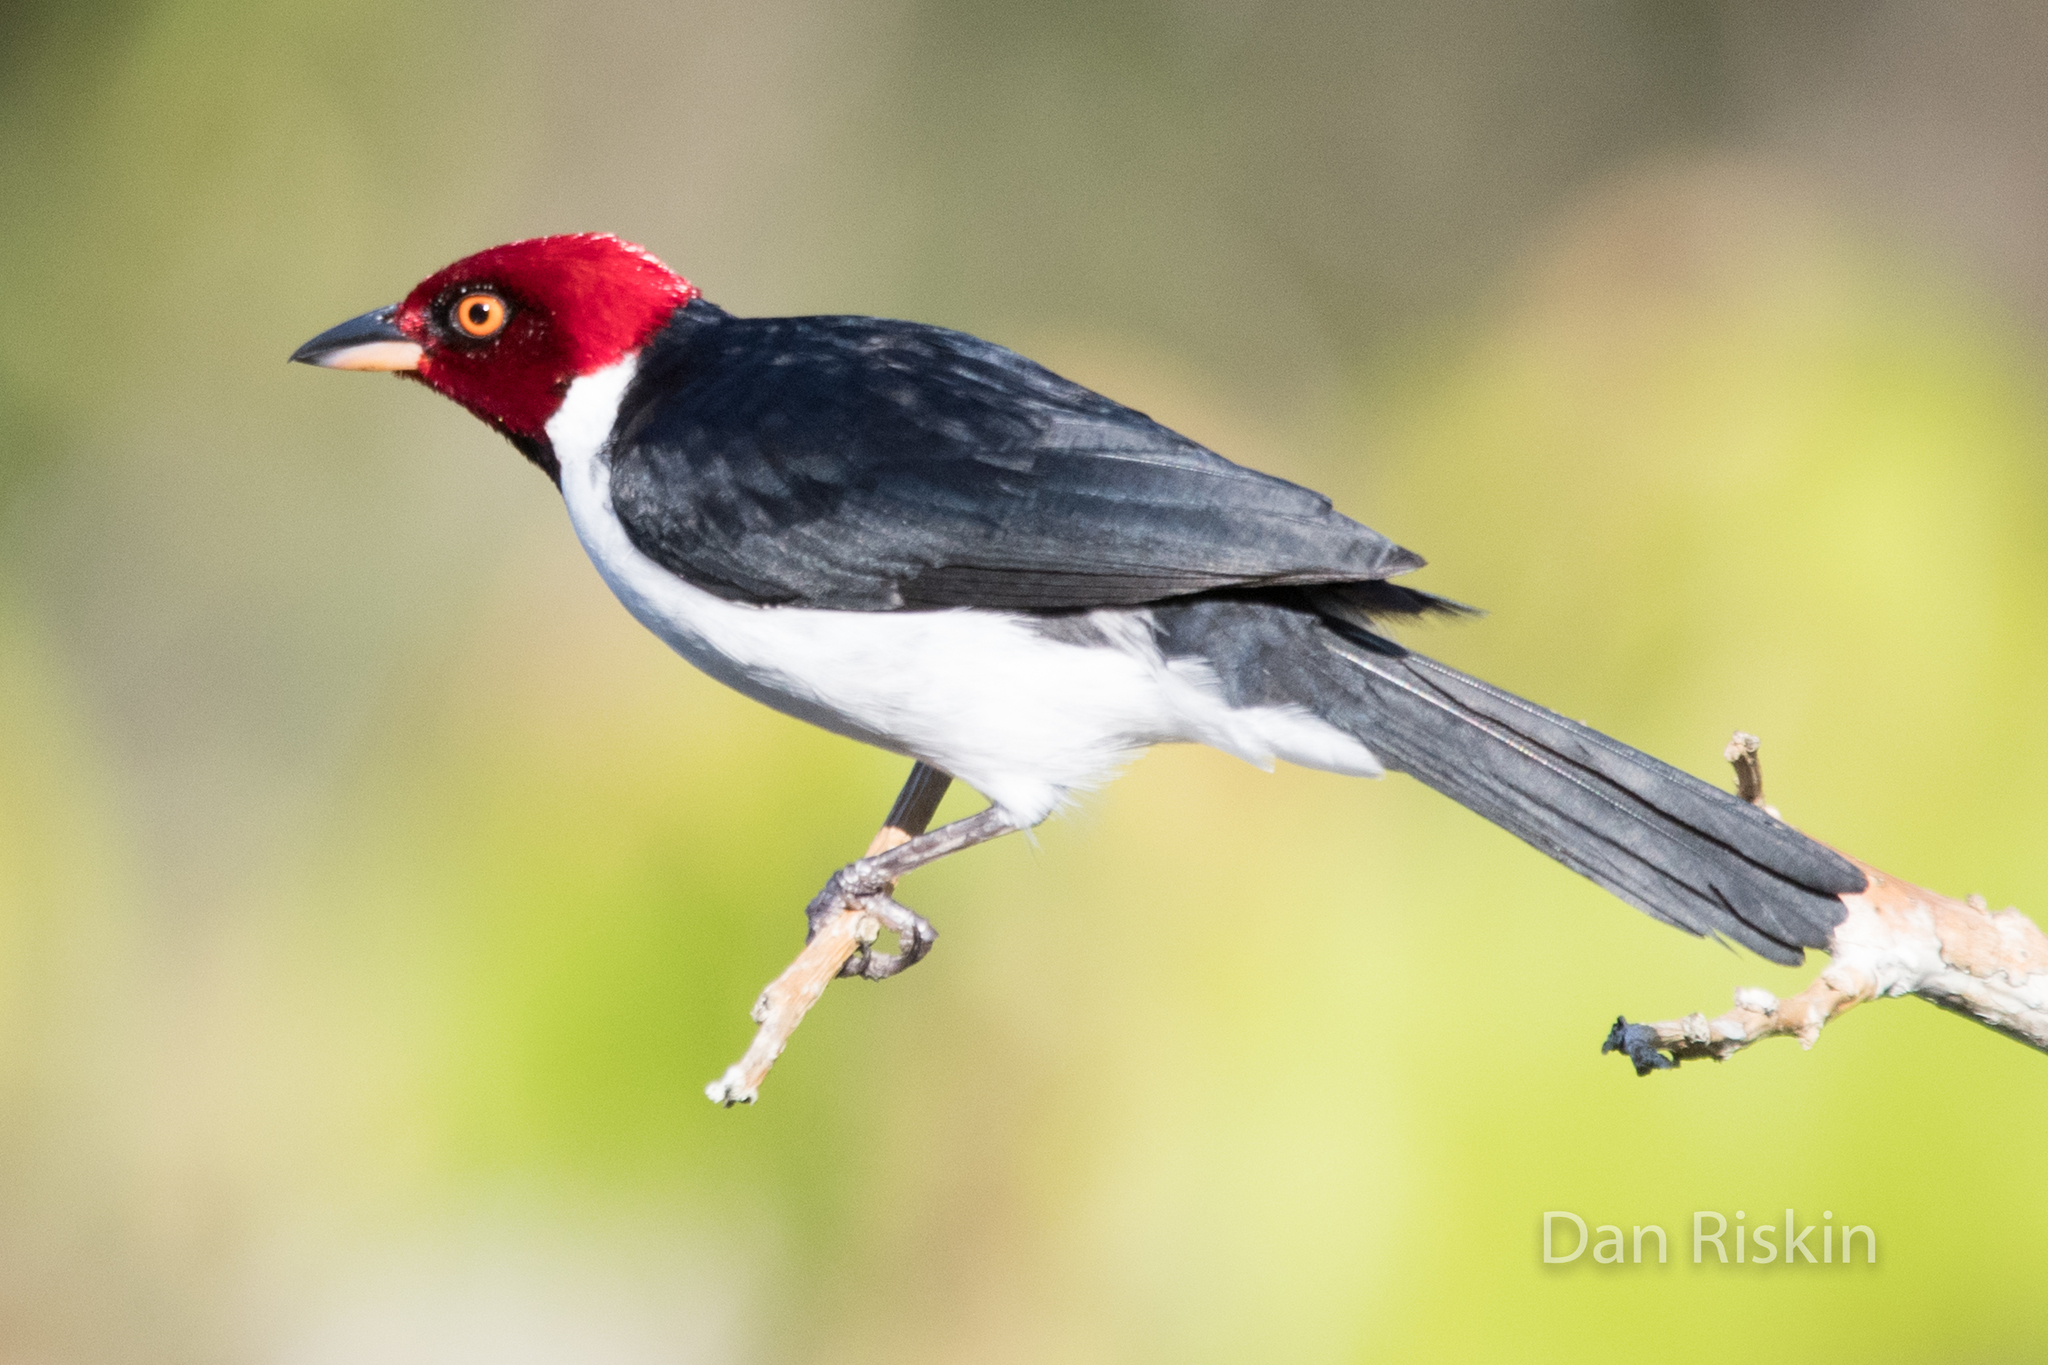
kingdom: Animalia
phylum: Chordata
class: Aves
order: Passeriformes
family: Thraupidae
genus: Paroaria
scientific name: Paroaria gularis
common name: Red-capped cardinal
